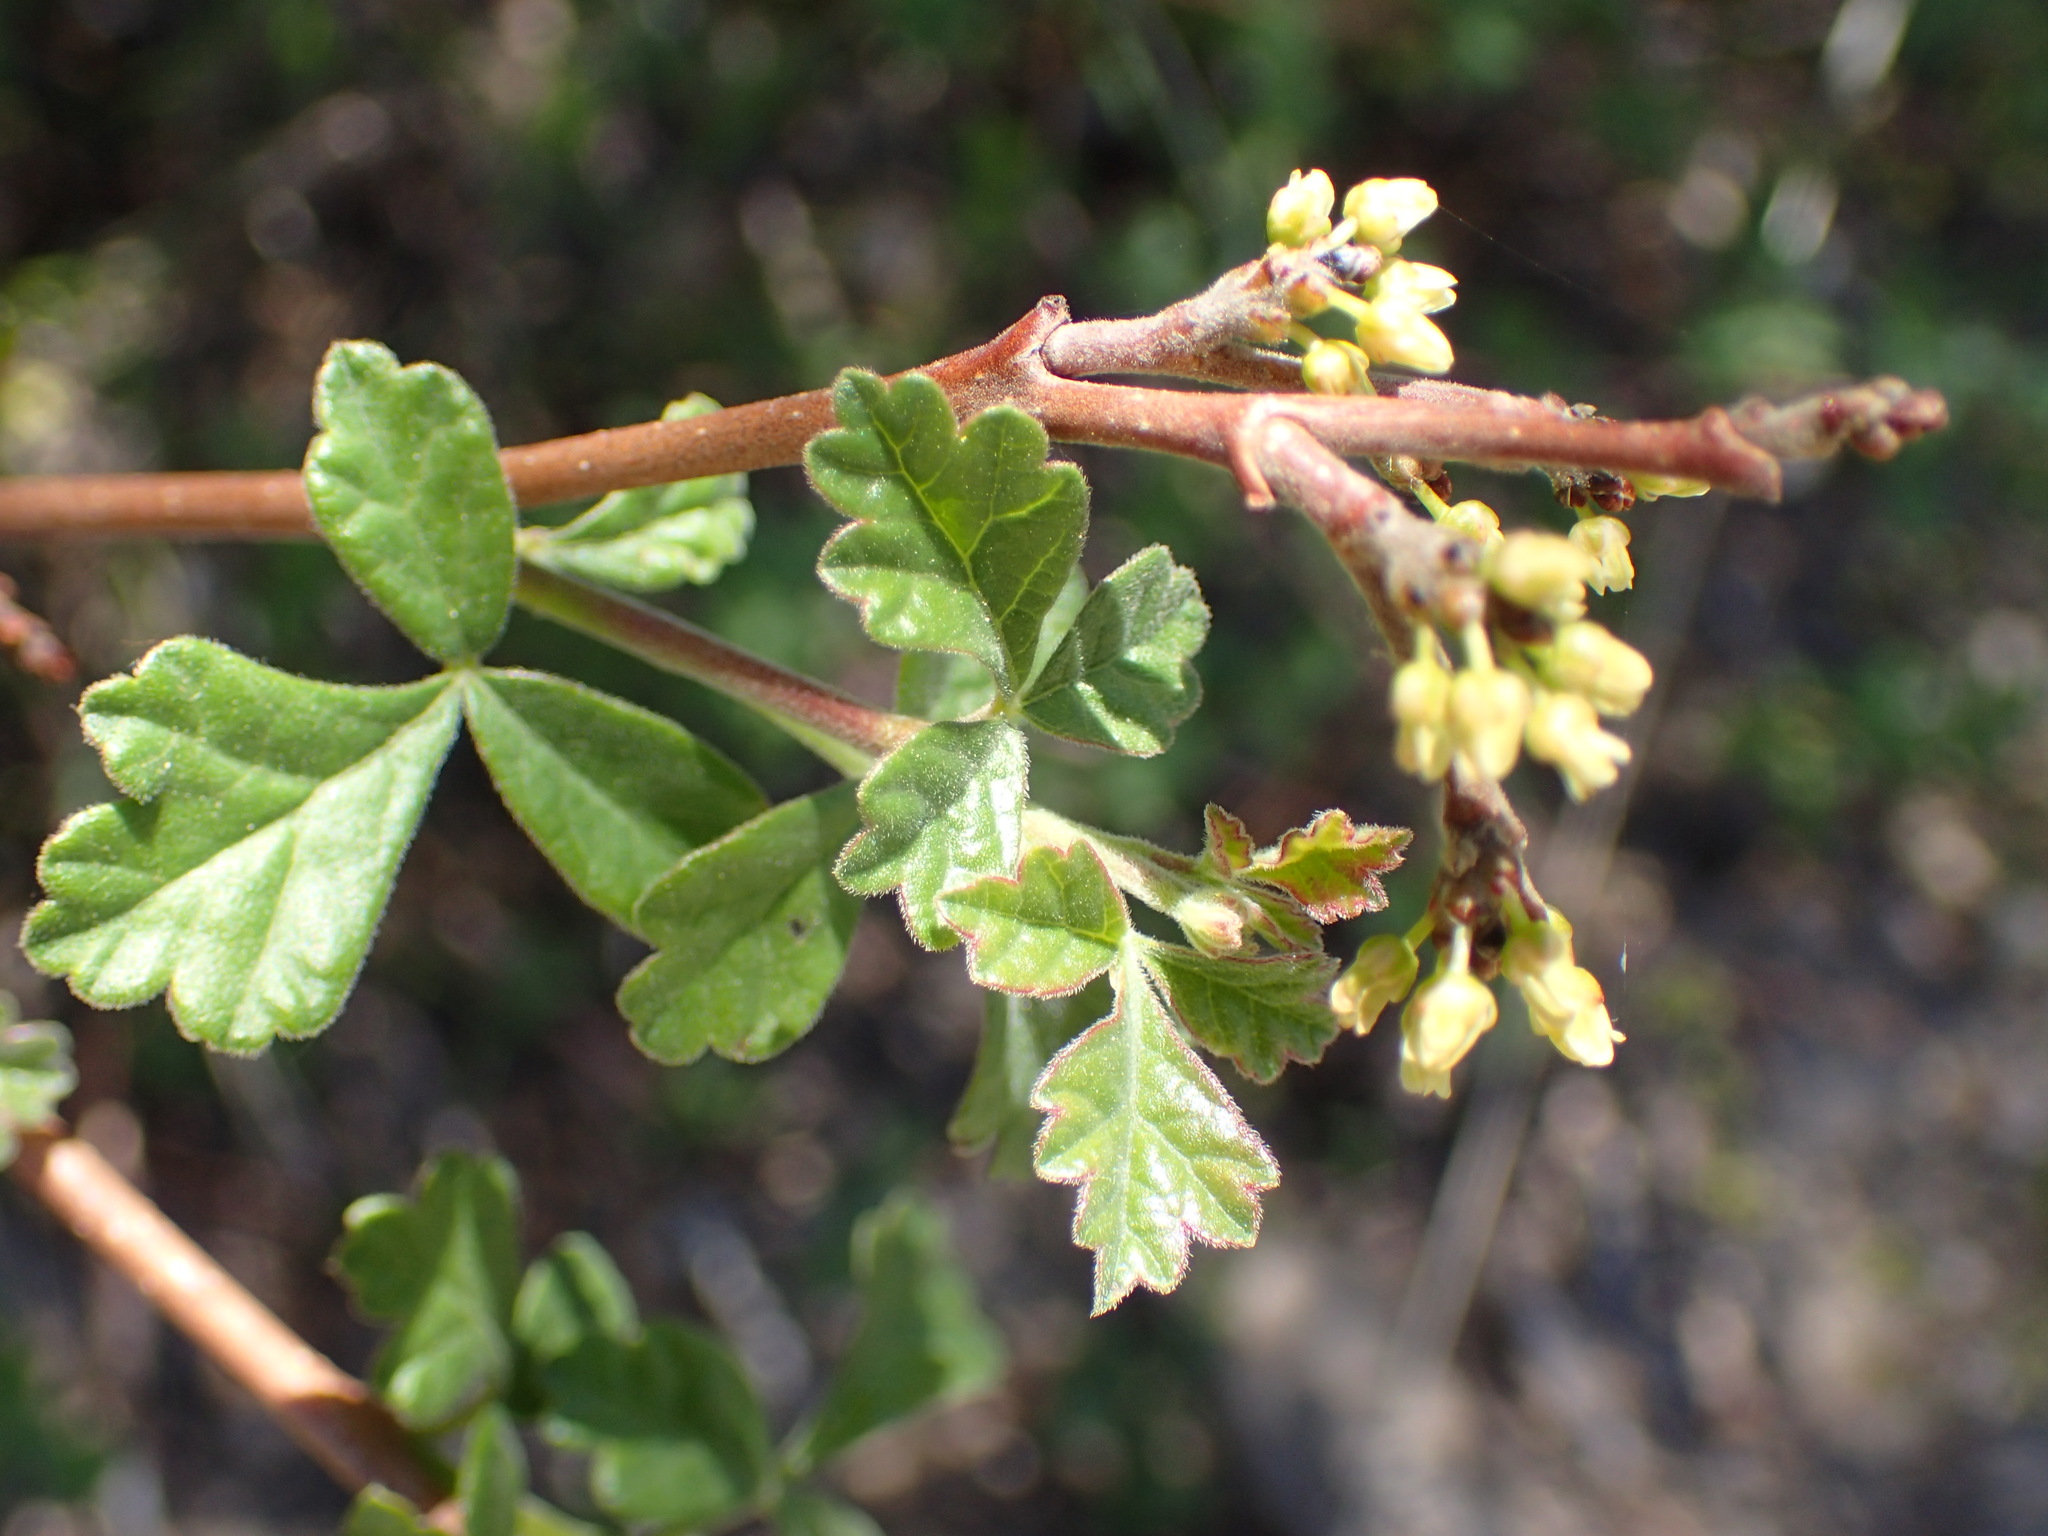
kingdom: Plantae
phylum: Tracheophyta
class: Magnoliopsida
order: Sapindales
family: Anacardiaceae
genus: Rhus
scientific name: Rhus aromatica
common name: Aromatic sumac
